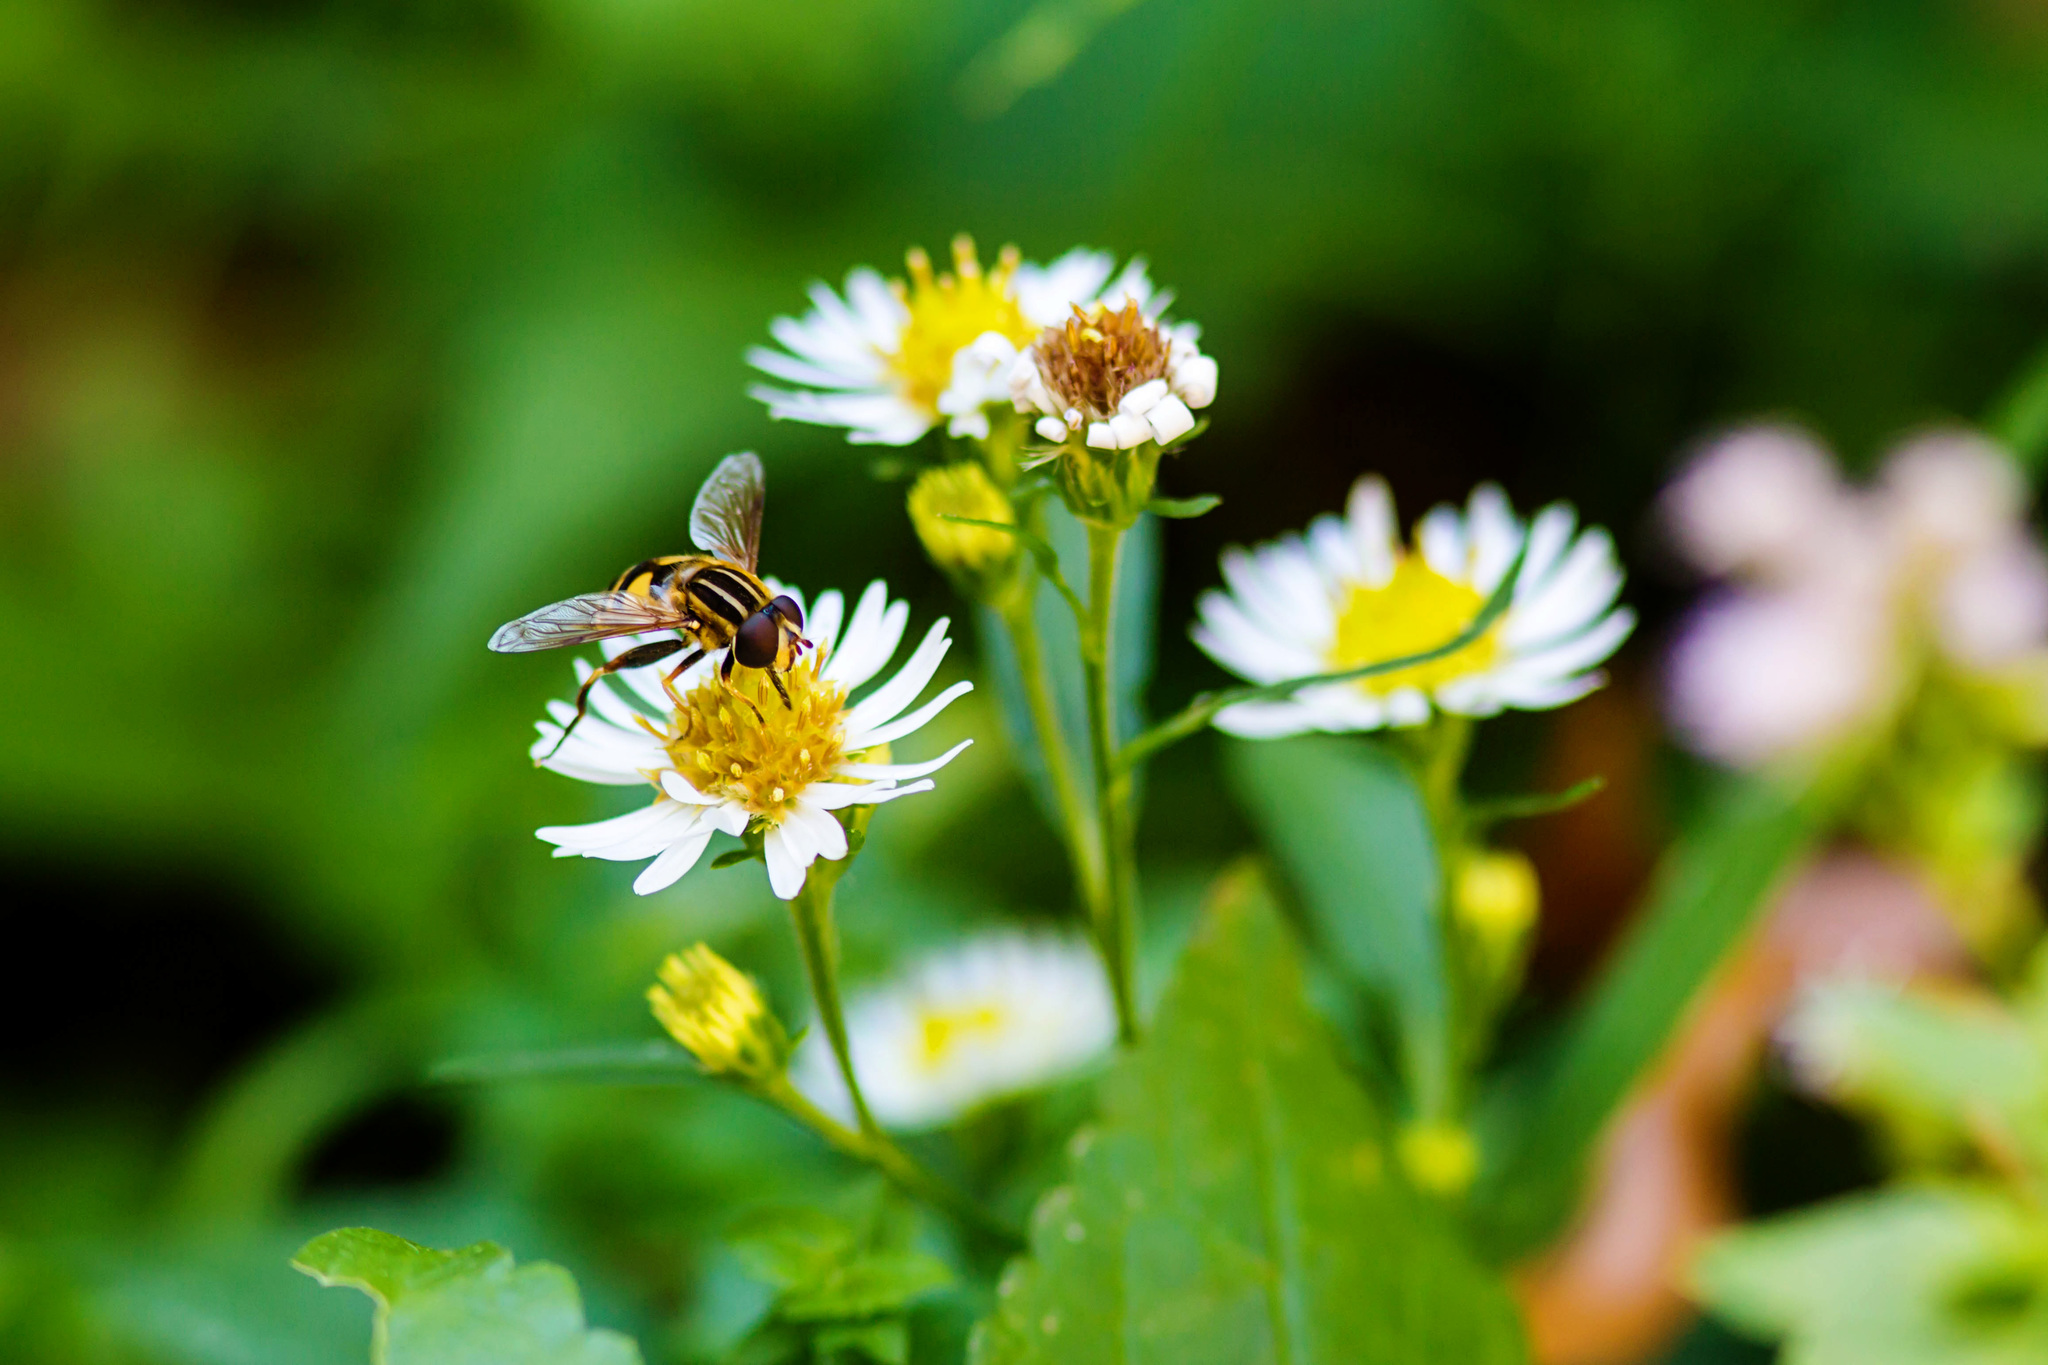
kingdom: Animalia
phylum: Arthropoda
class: Insecta
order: Diptera
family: Syrphidae
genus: Helophilus
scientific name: Helophilus fasciatus
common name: Narrow-headed marsh fly
